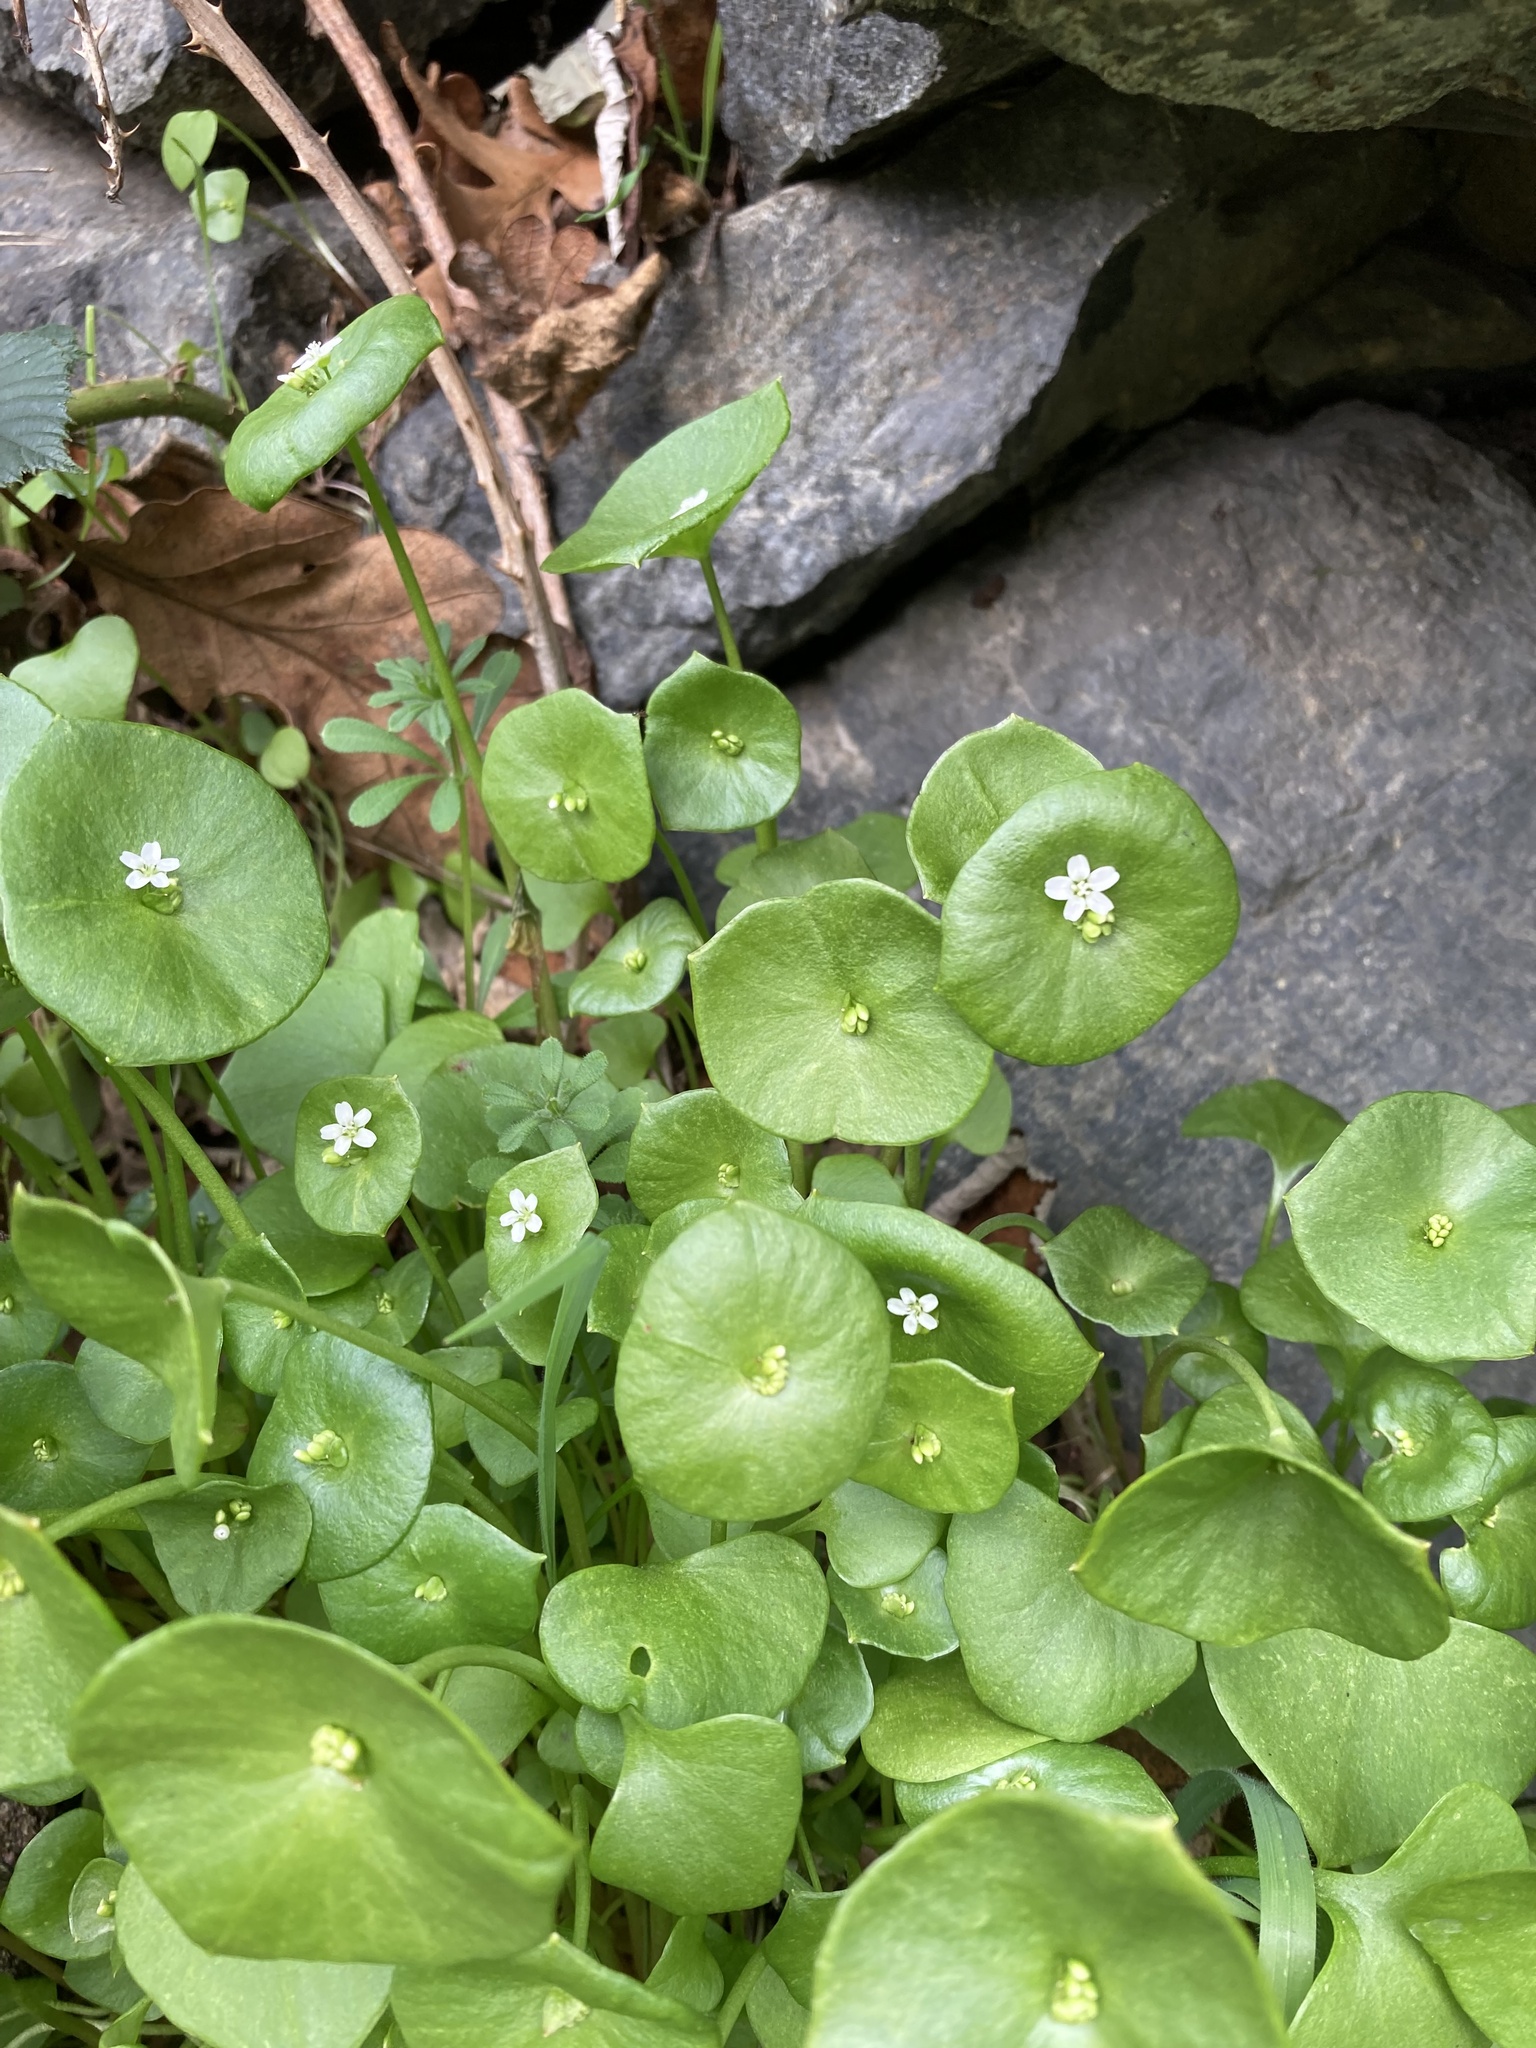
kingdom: Plantae
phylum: Tracheophyta
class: Magnoliopsida
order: Caryophyllales
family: Montiaceae
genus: Claytonia
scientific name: Claytonia perfoliata
